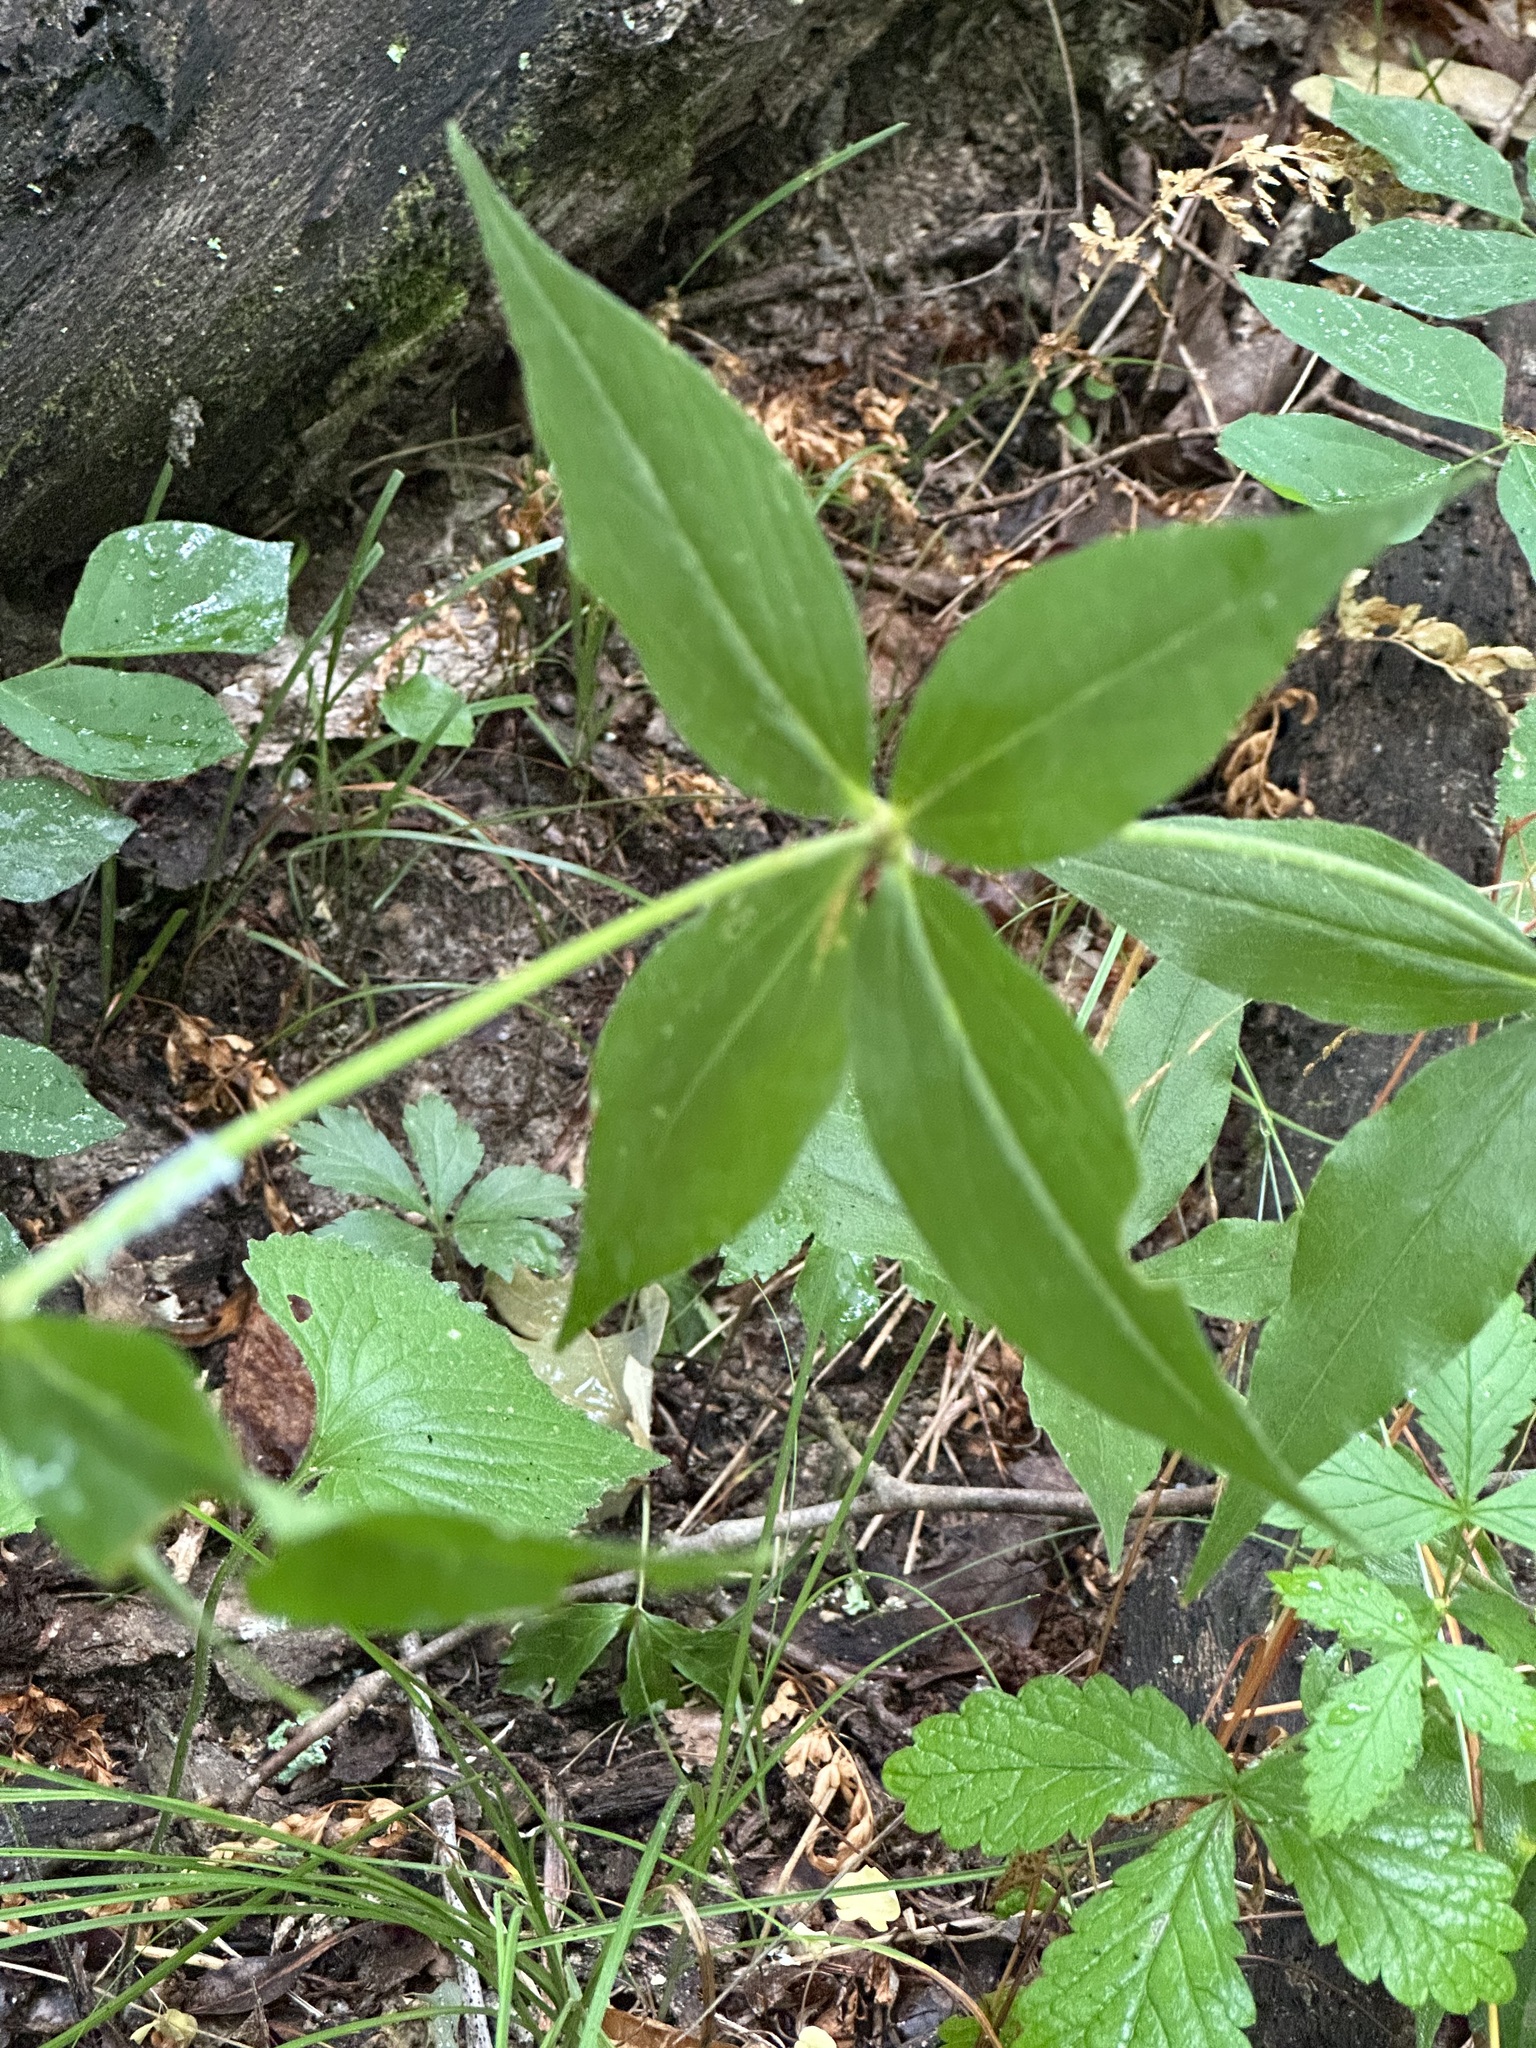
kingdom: Plantae
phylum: Tracheophyta
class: Magnoliopsida
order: Caryophyllales
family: Caryophyllaceae
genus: Silene
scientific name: Silene stellata
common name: Starry campion
